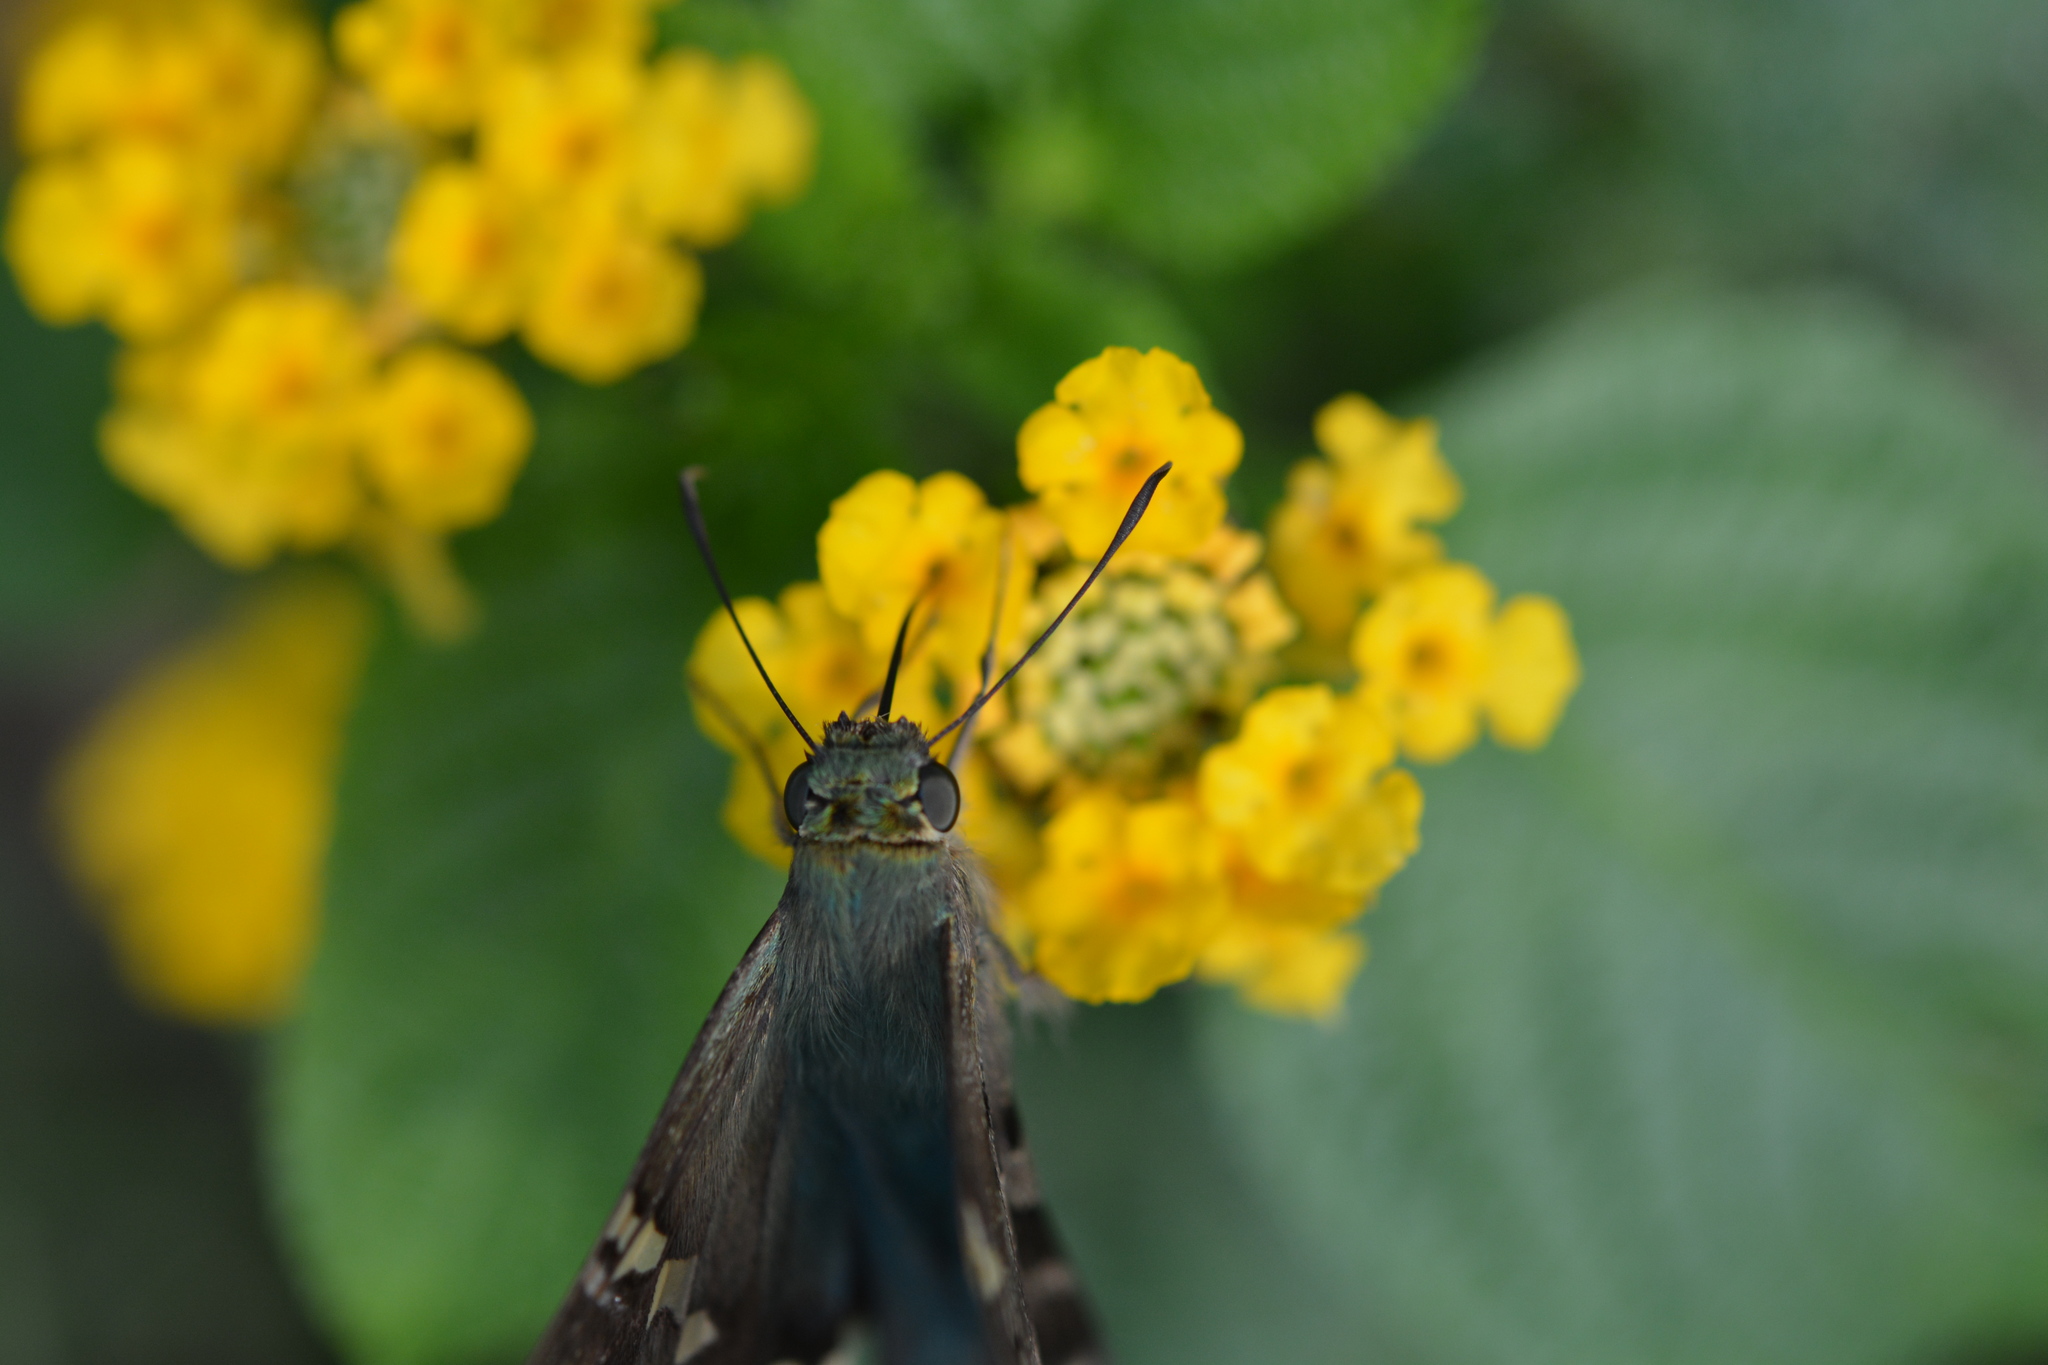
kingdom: Animalia
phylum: Arthropoda
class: Insecta
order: Lepidoptera
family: Hesperiidae
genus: Urbanus
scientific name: Urbanus proteus
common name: Long-tailed skipper
